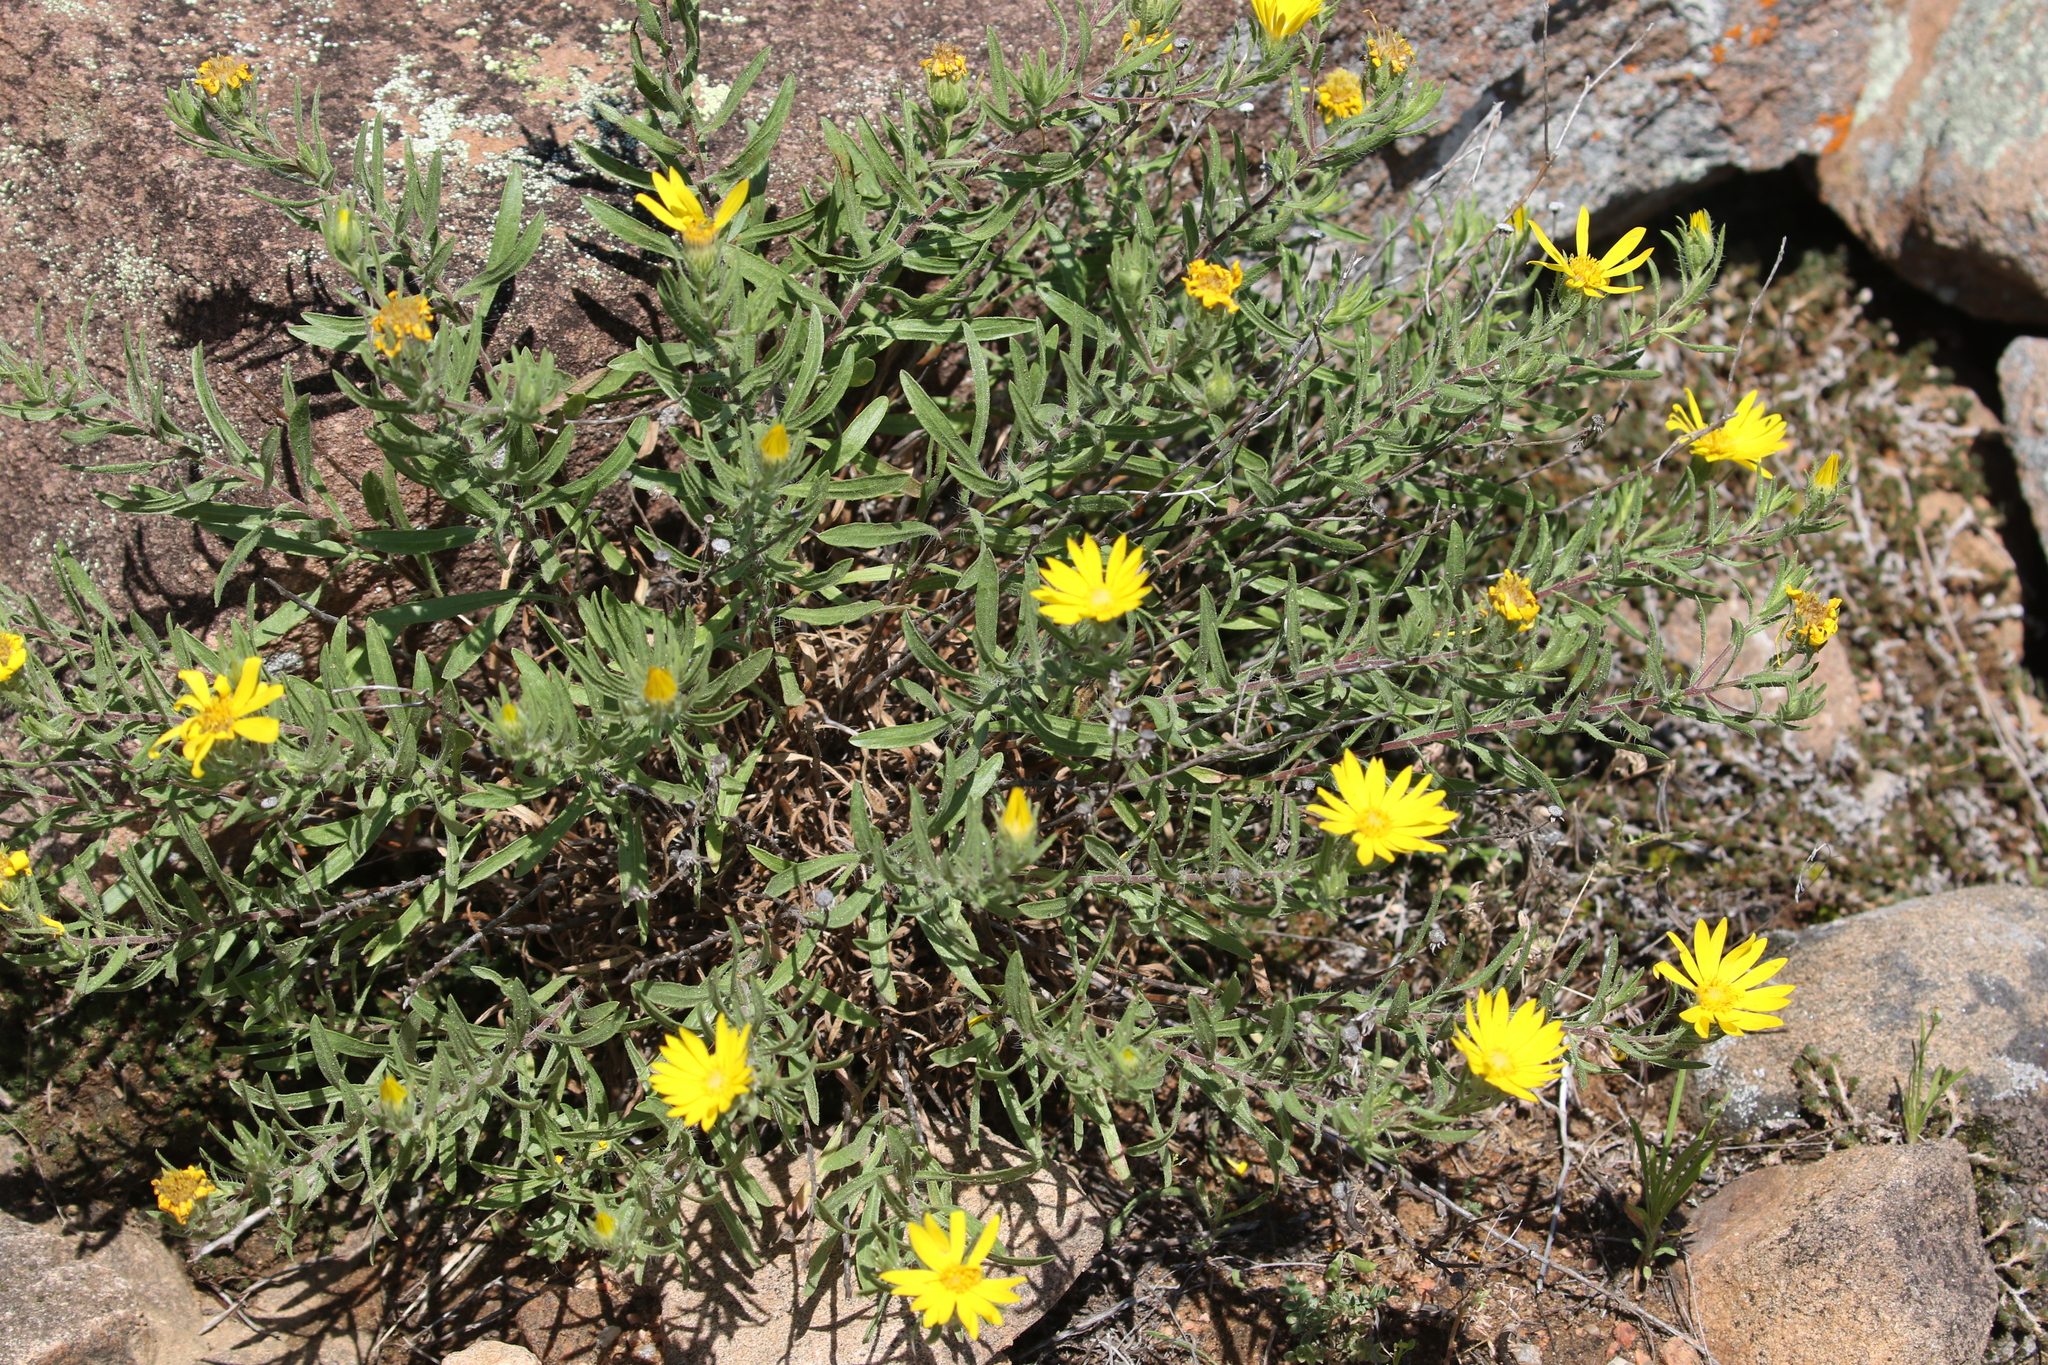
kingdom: Plantae
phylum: Tracheophyta
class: Magnoliopsida
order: Asterales
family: Asteraceae
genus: Heterotheca
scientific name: Heterotheca stenophylla
